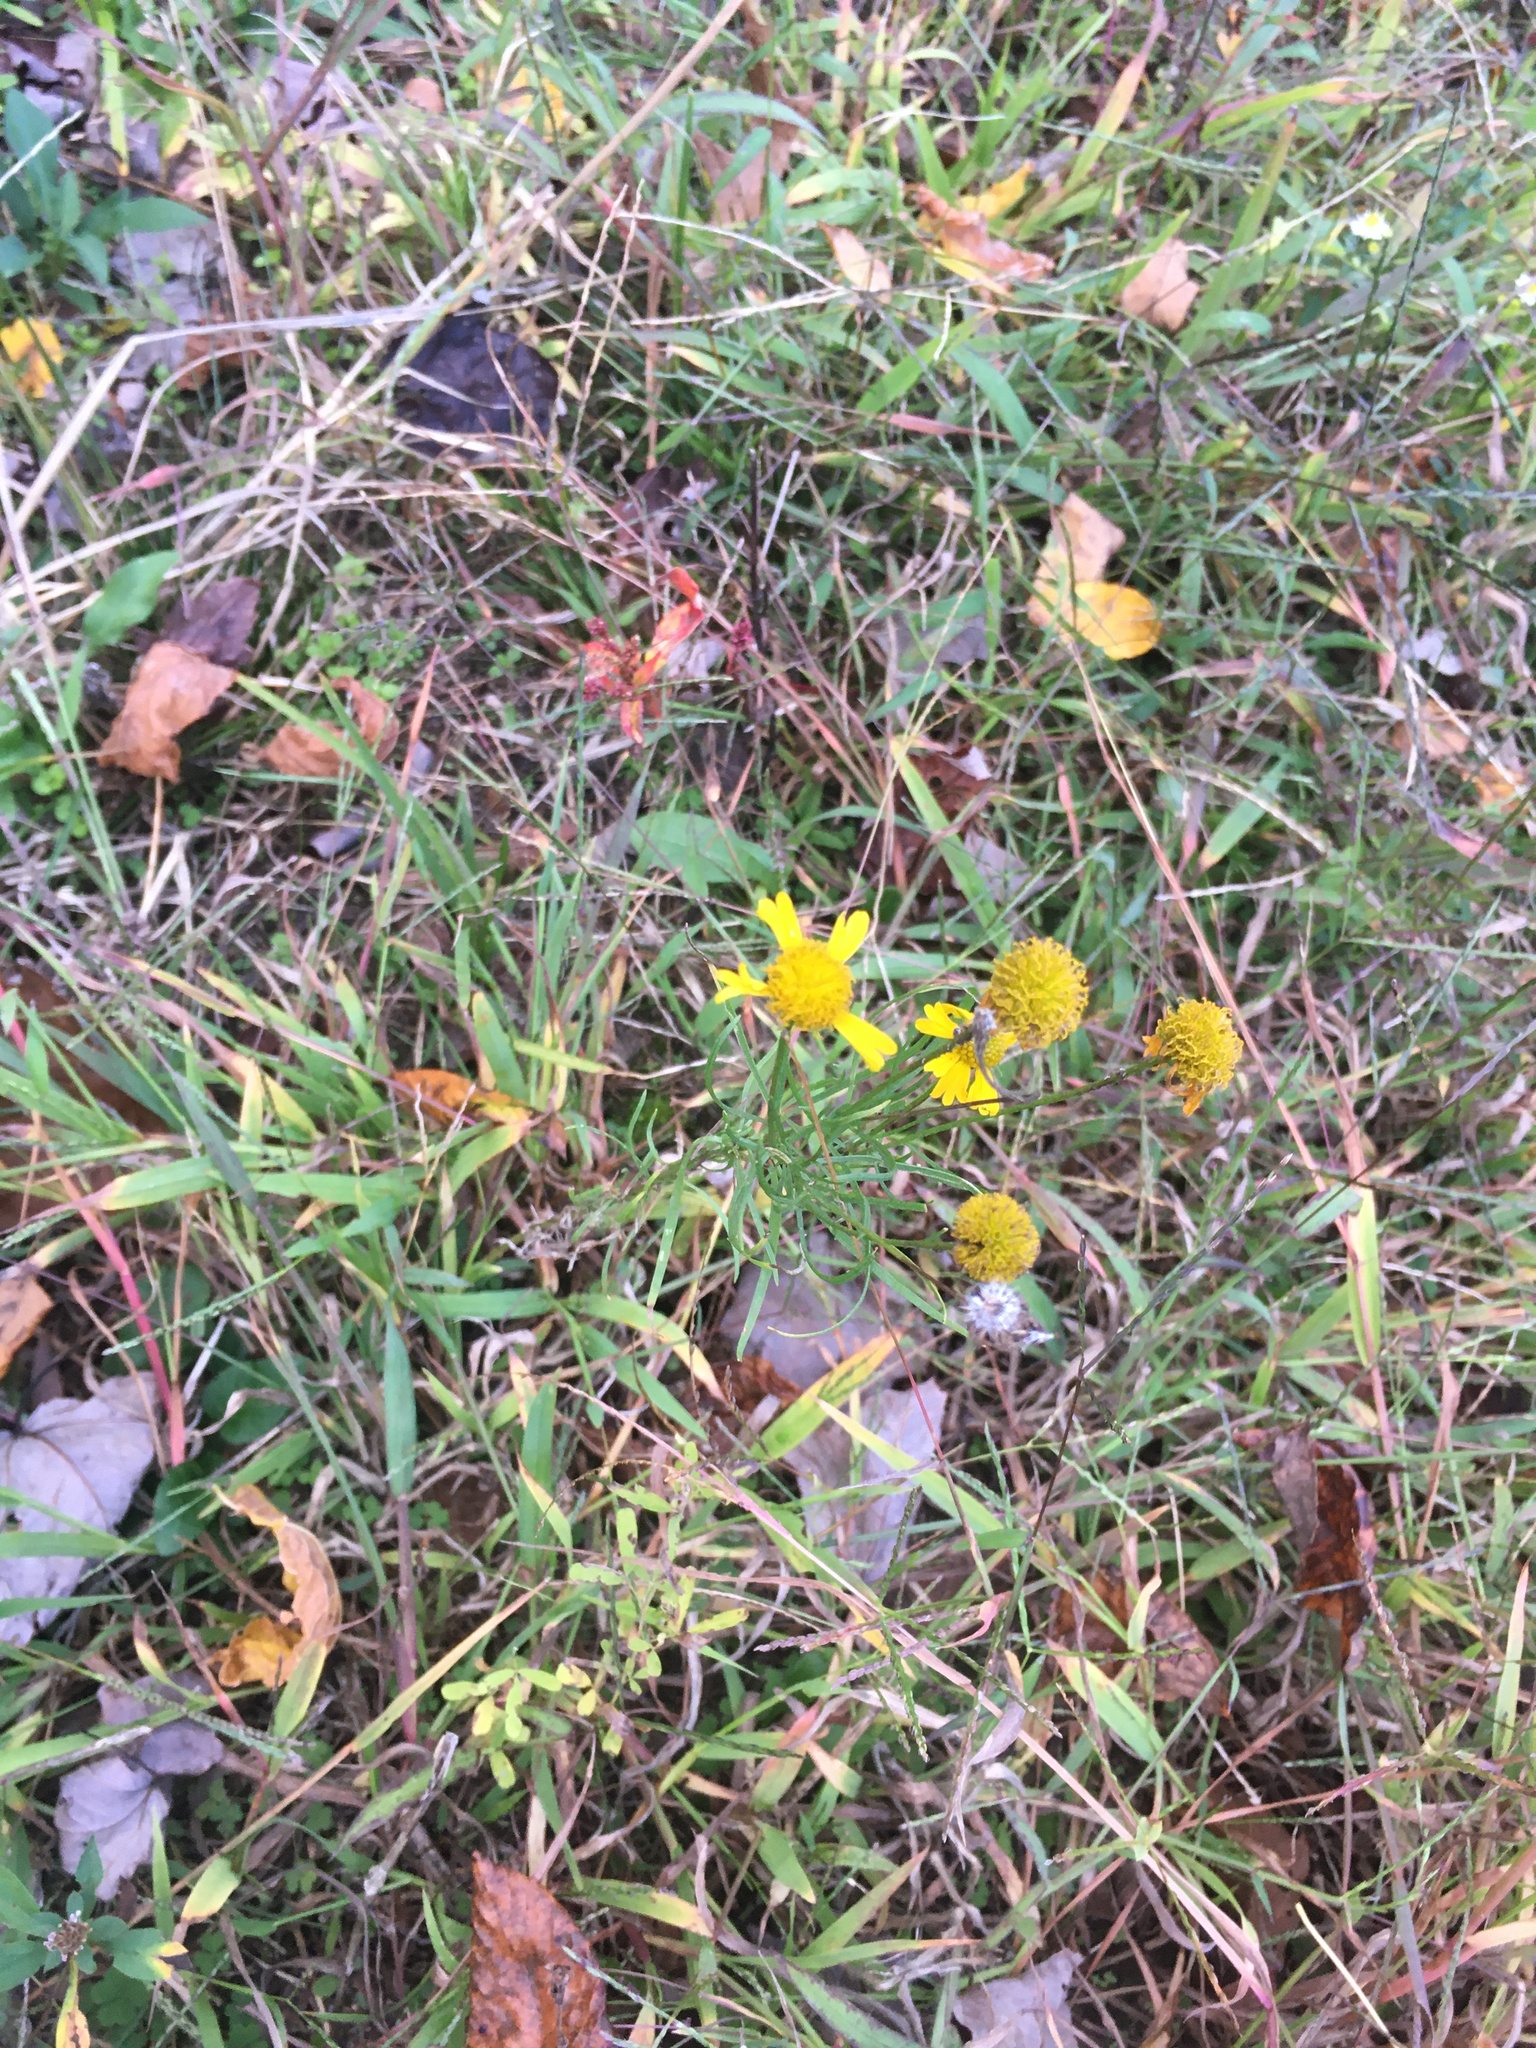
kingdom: Plantae
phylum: Tracheophyta
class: Magnoliopsida
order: Asterales
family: Asteraceae
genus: Helenium
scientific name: Helenium amarum
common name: Bitter sneezeweed
